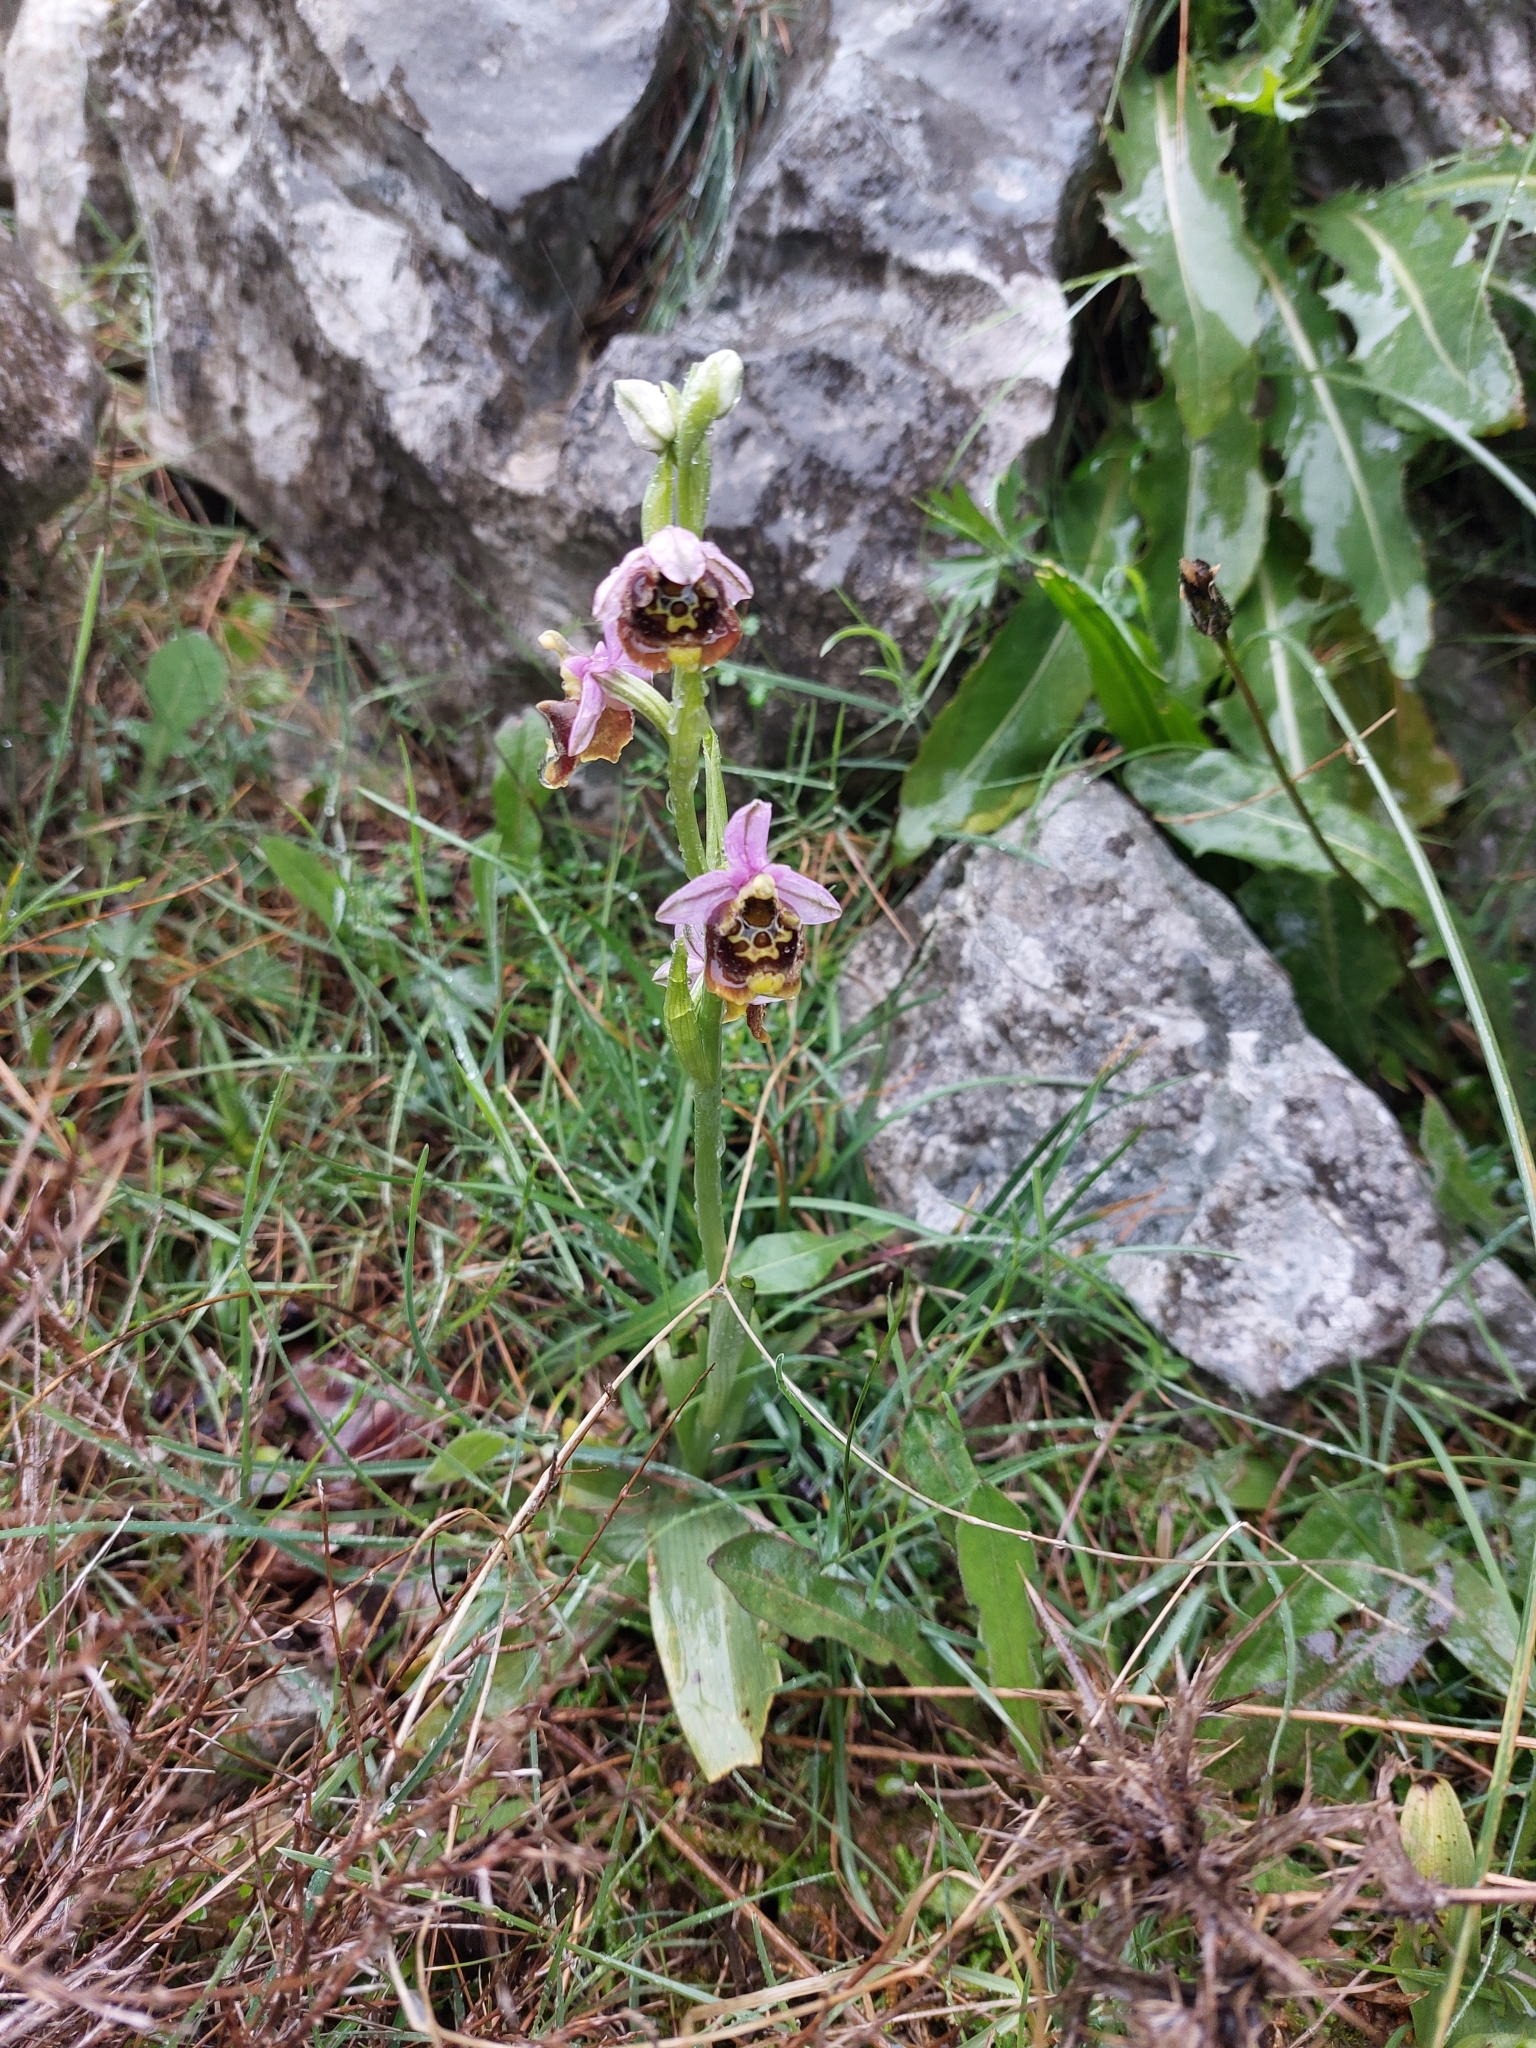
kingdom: Plantae
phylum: Tracheophyta
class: Liliopsida
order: Asparagales
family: Orchidaceae
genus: Ophrys
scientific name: Ophrys holosericea
